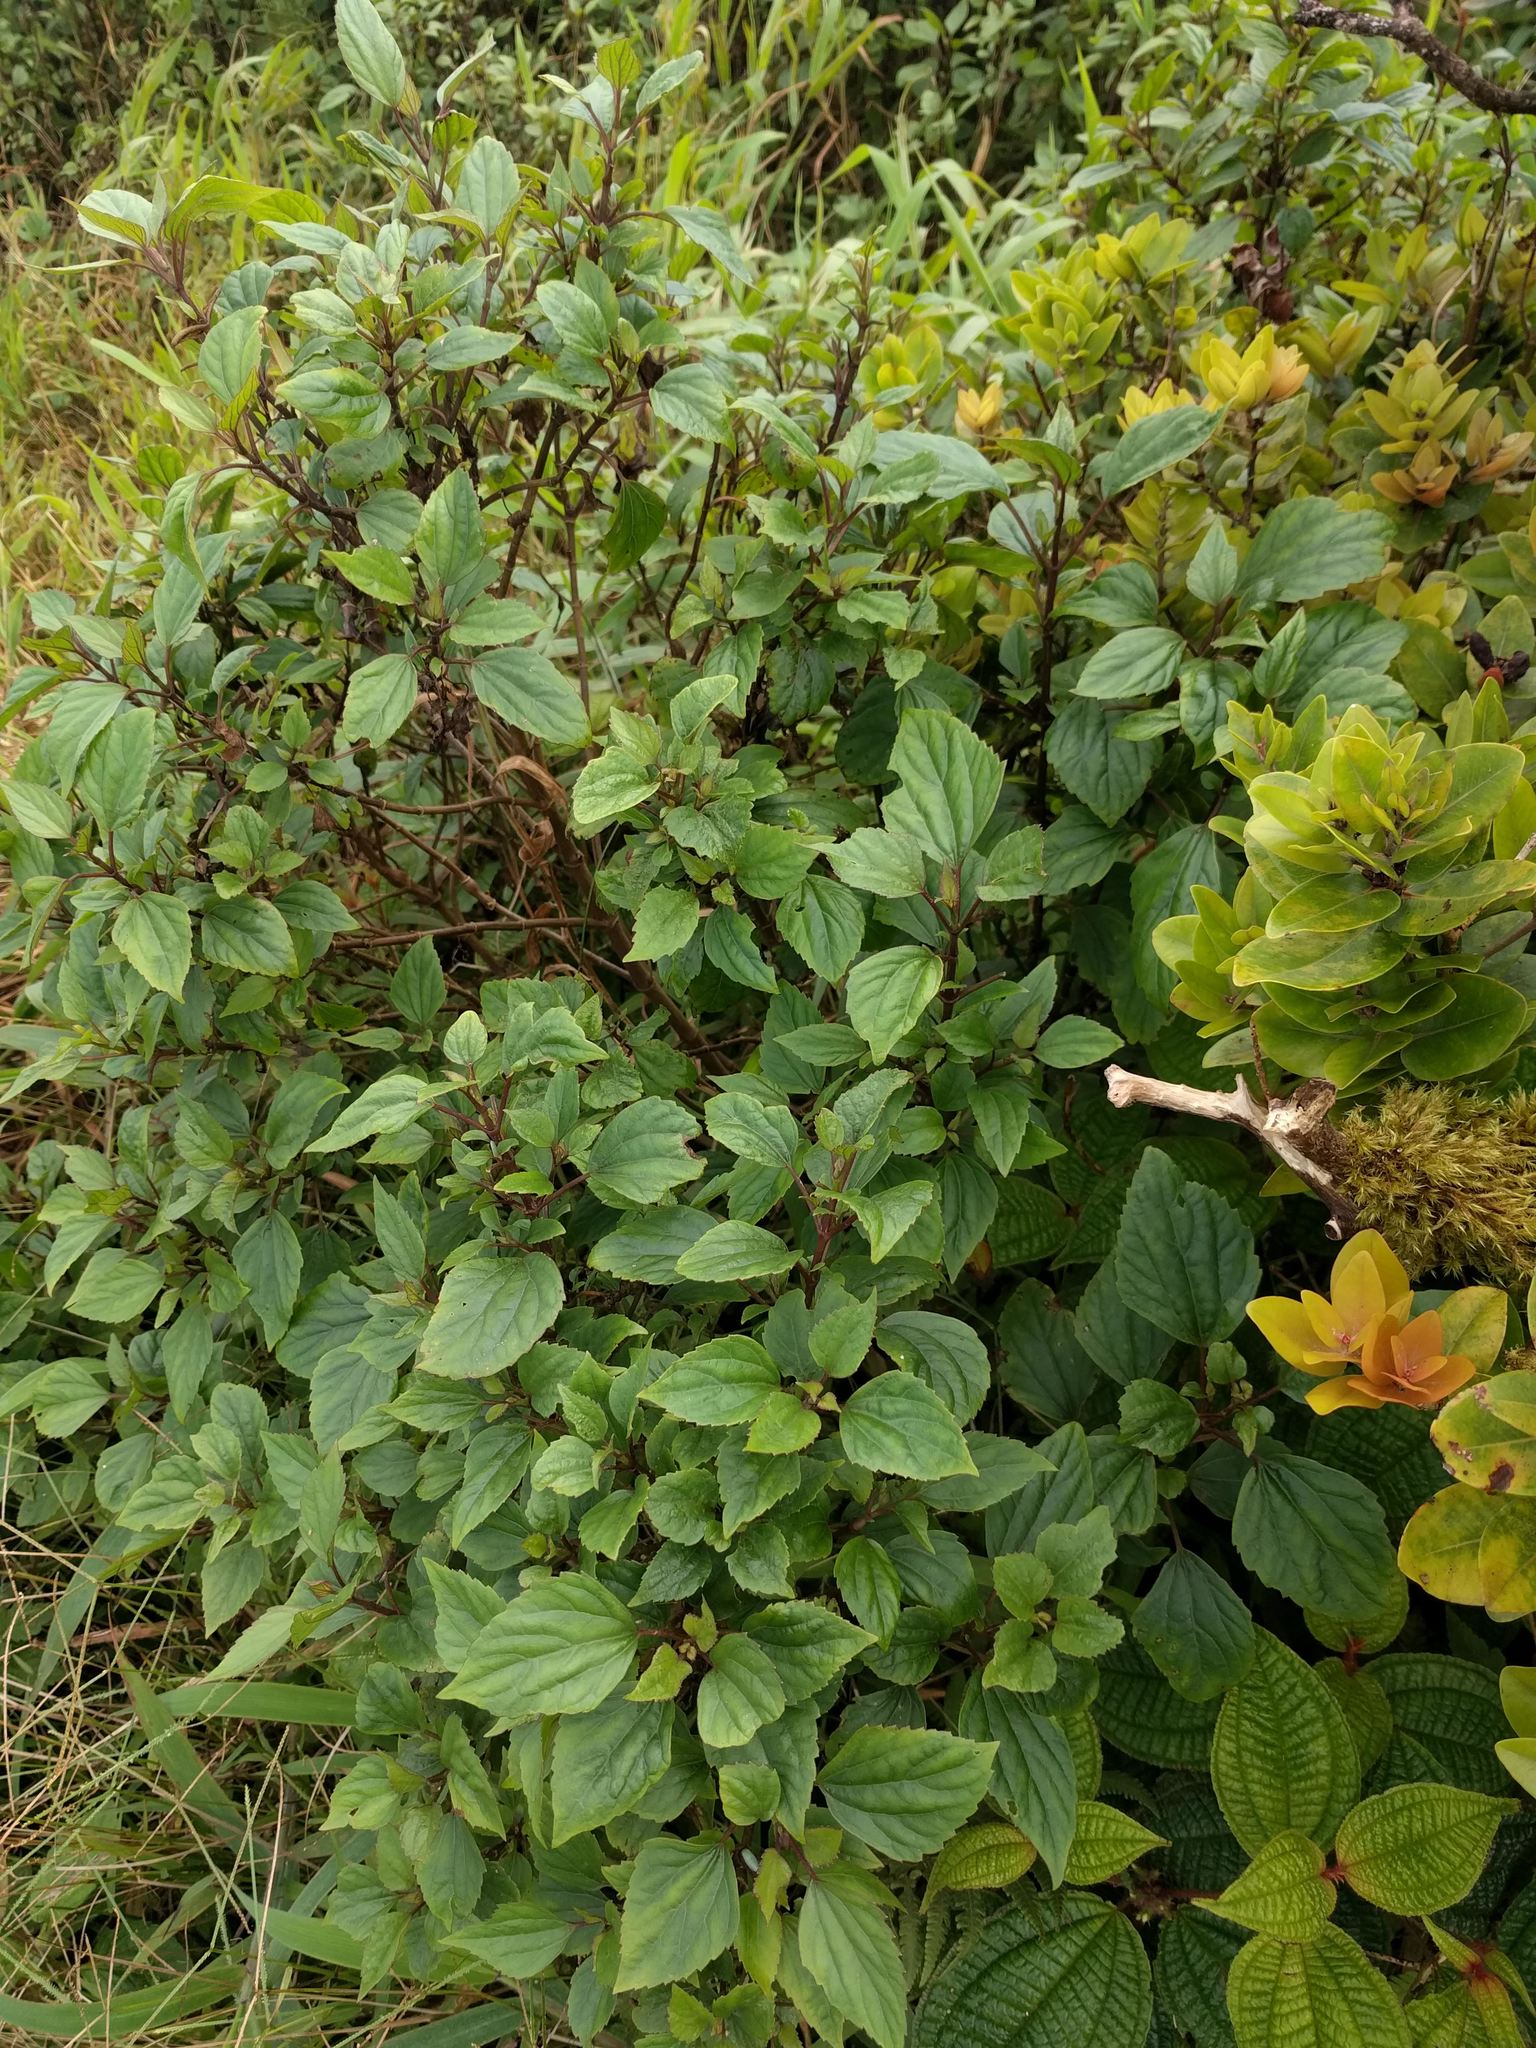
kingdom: Plantae
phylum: Tracheophyta
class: Magnoliopsida
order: Asterales
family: Asteraceae
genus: Ageratina
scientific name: Ageratina adenophora
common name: Sticky snakeroot
